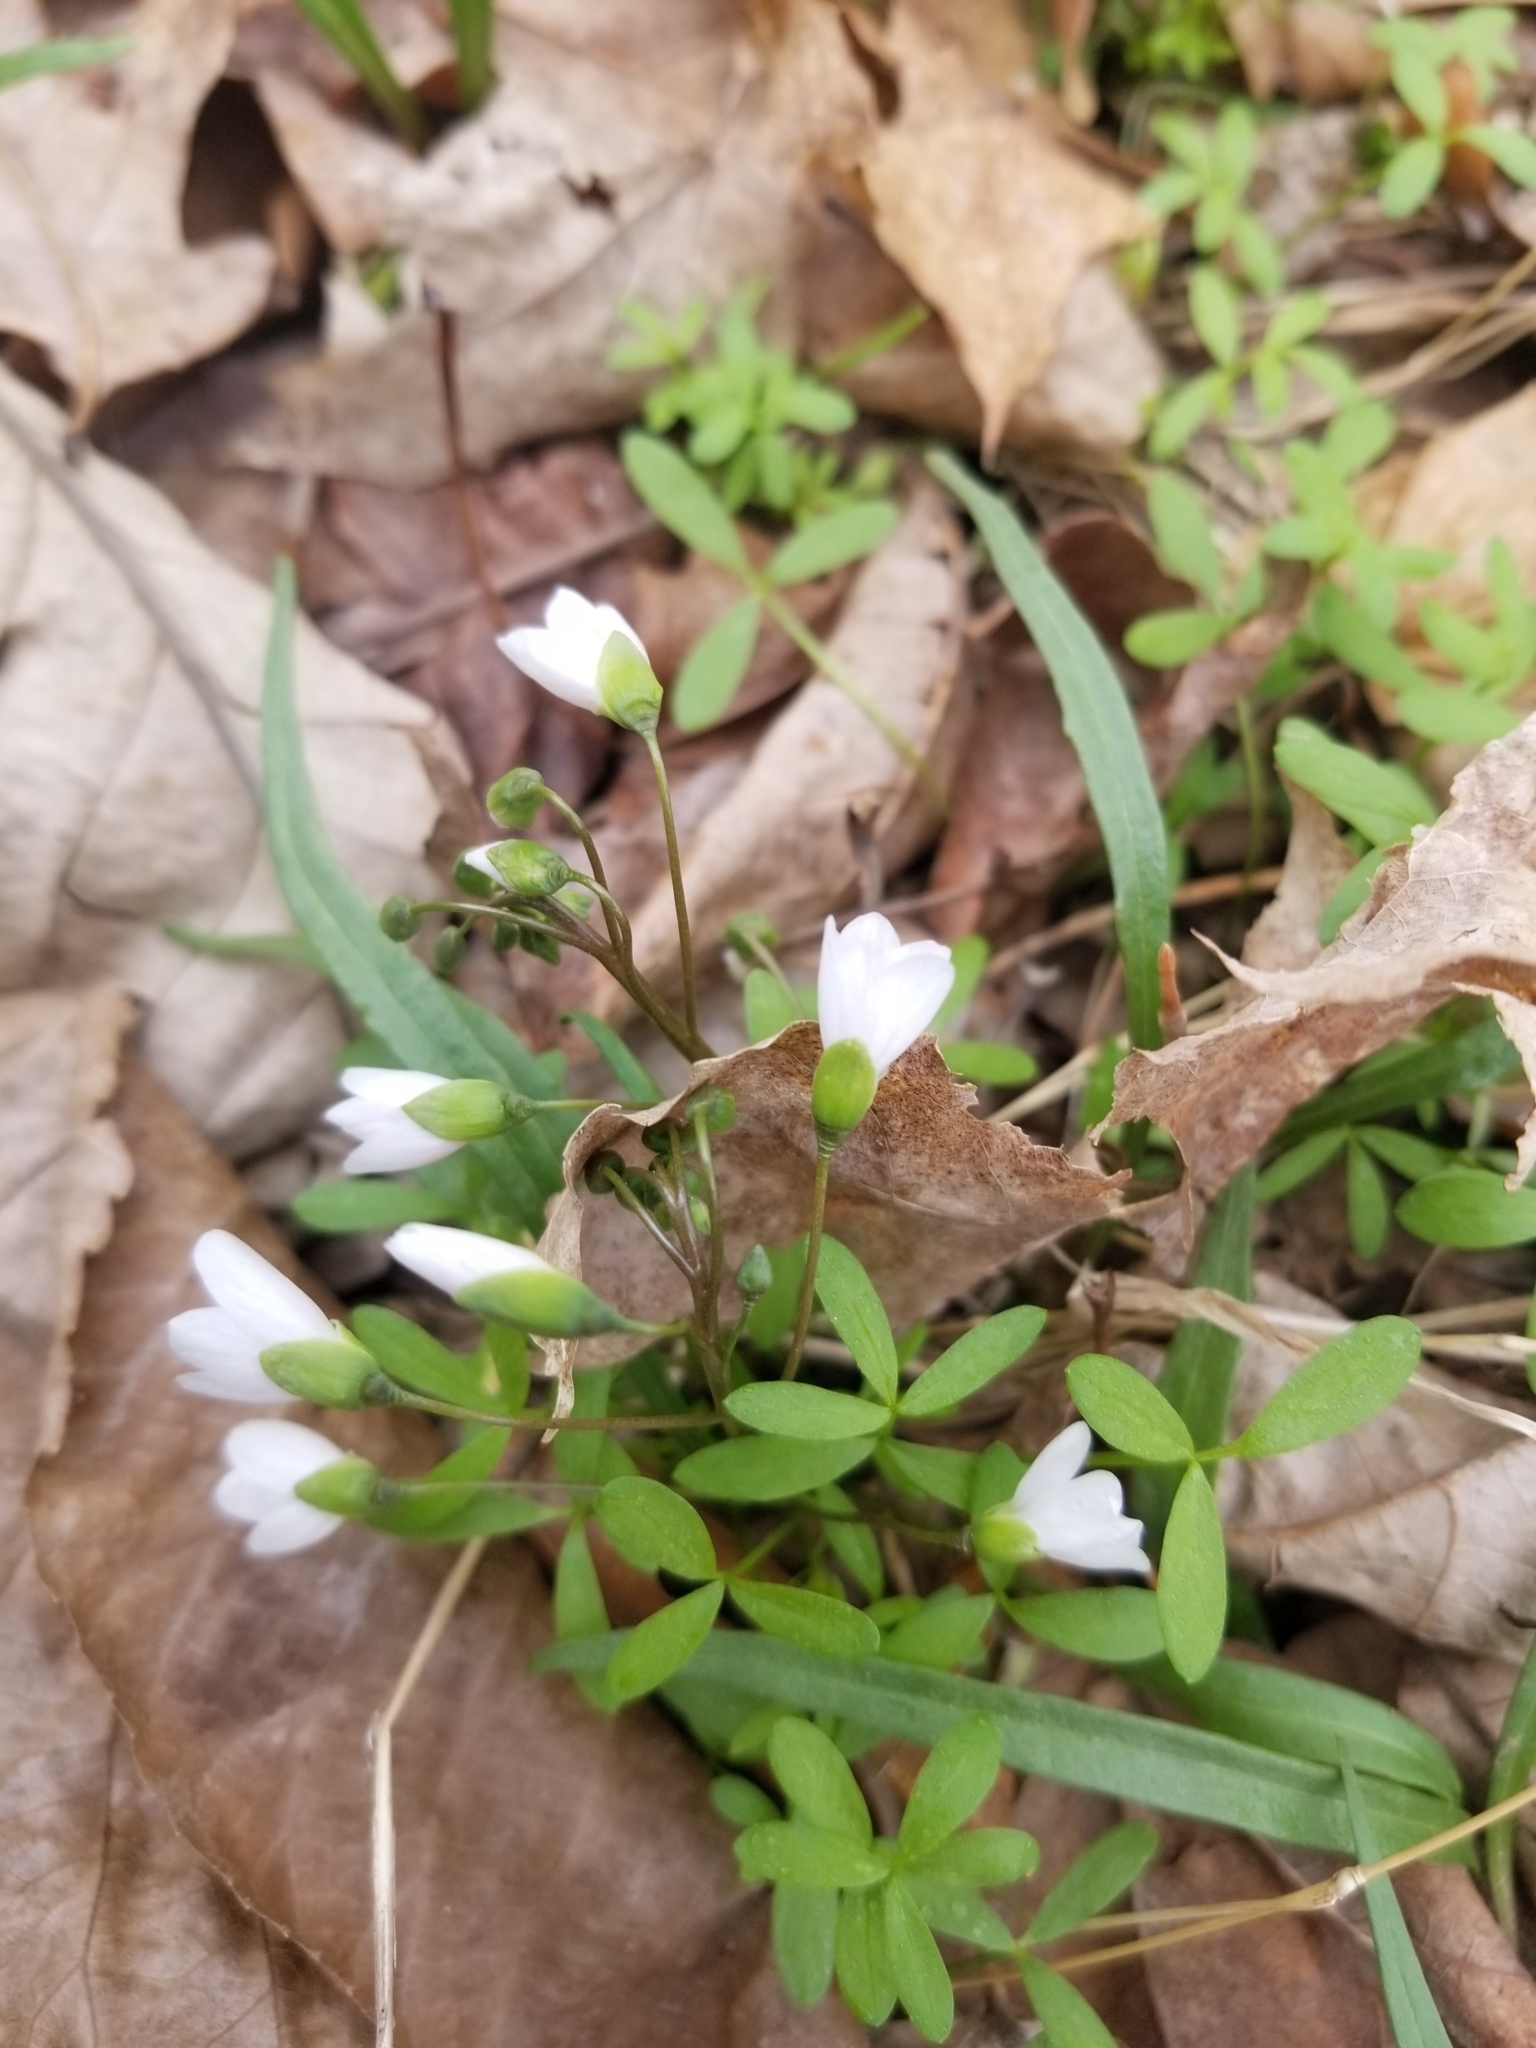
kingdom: Plantae
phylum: Tracheophyta
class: Magnoliopsida
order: Caryophyllales
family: Montiaceae
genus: Claytonia
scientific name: Claytonia virginica
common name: Virginia springbeauty
